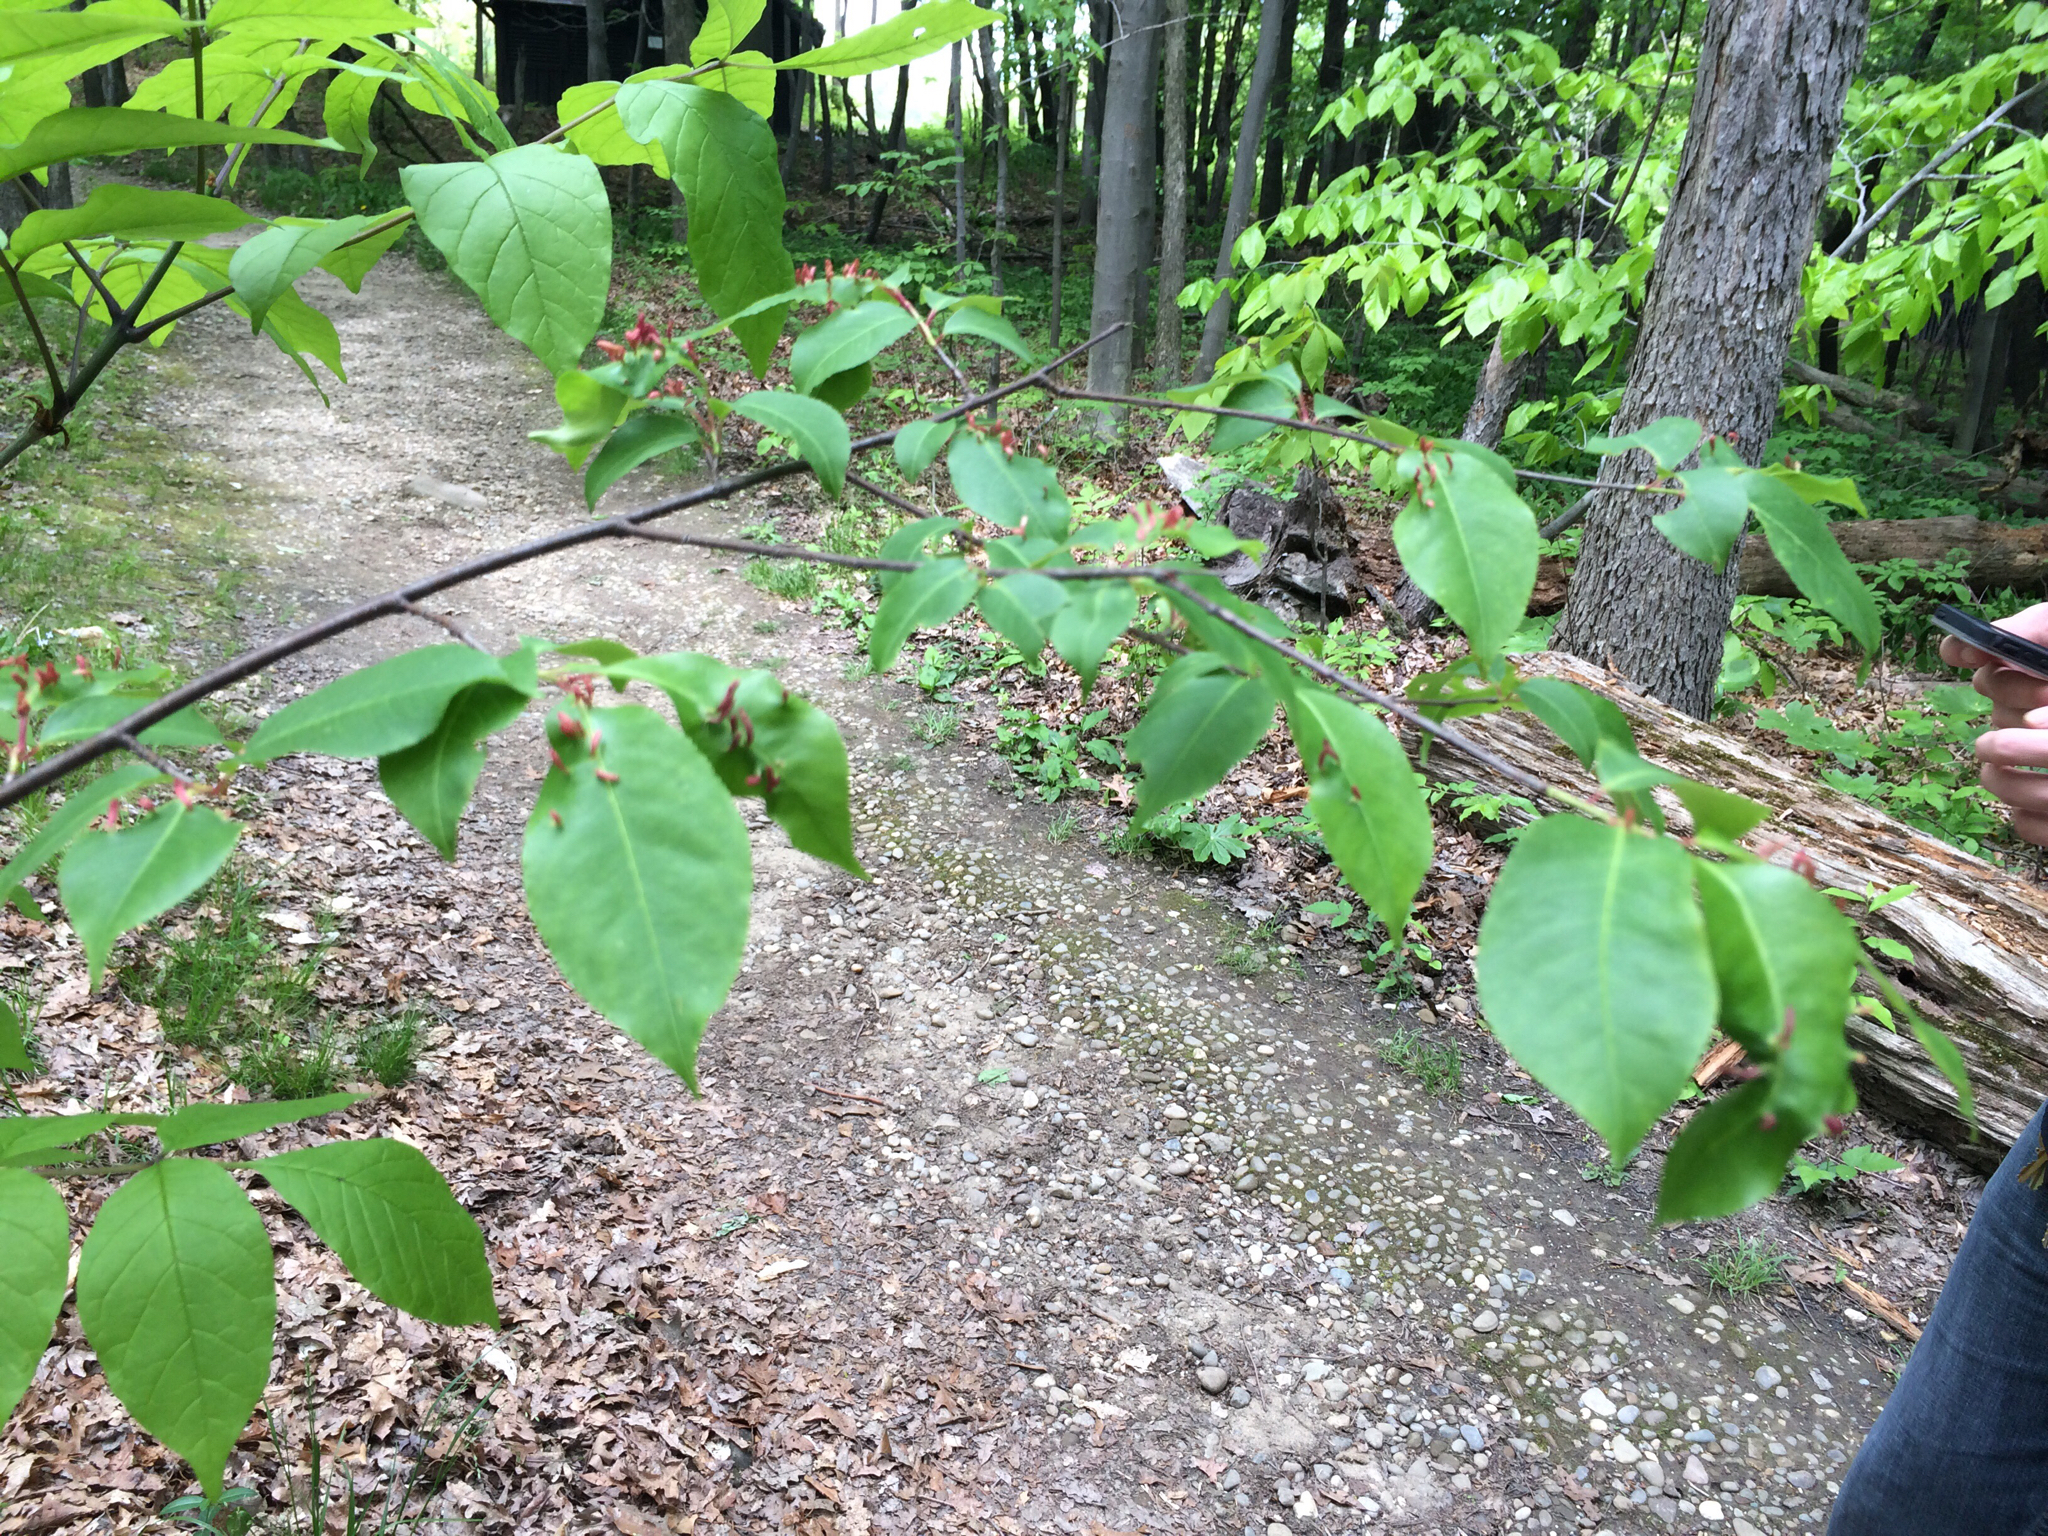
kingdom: Plantae
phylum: Tracheophyta
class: Magnoliopsida
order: Rosales
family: Rosaceae
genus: Prunus
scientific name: Prunus serotina
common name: Black cherry
